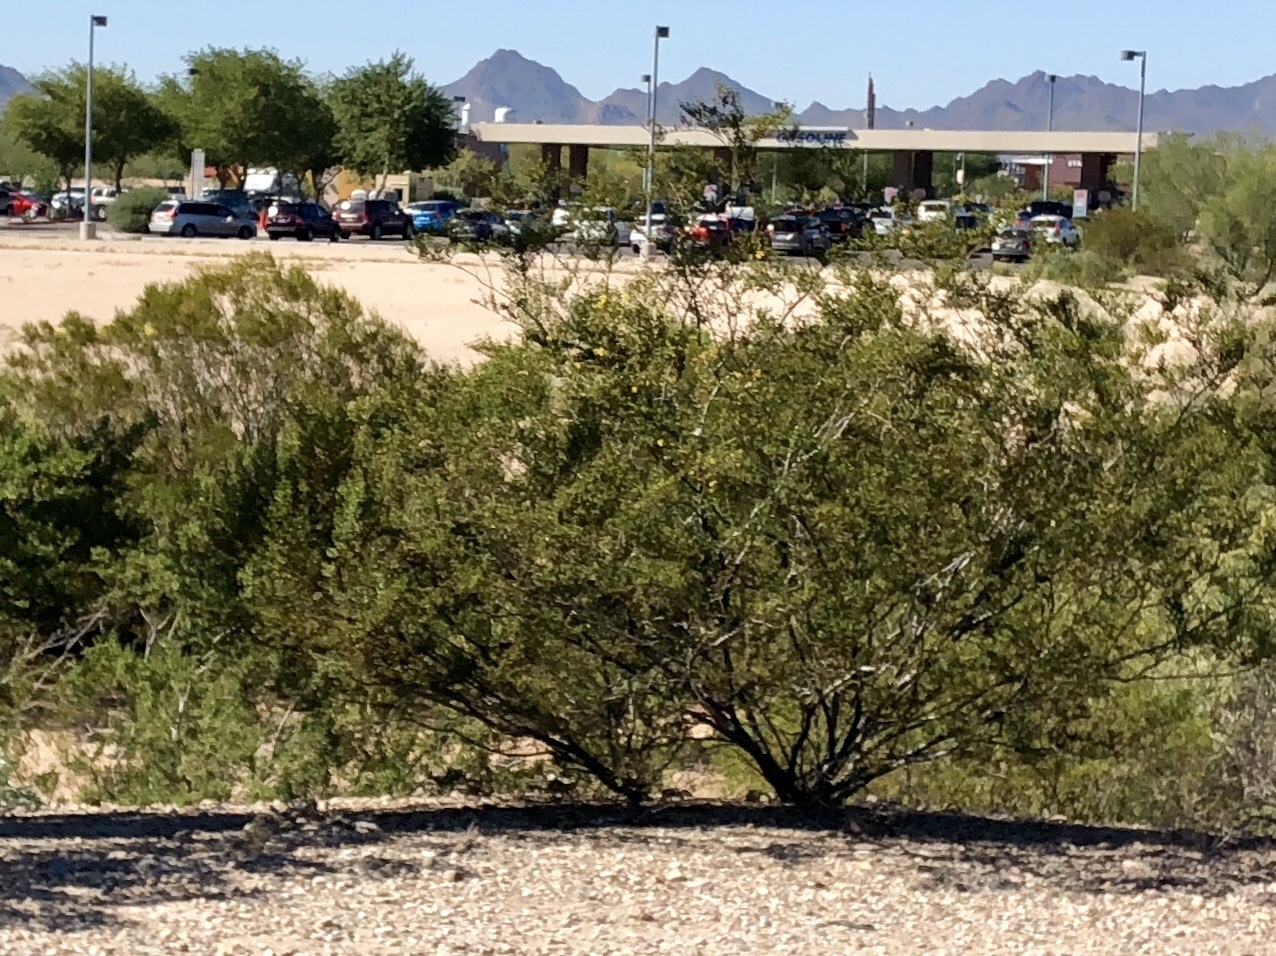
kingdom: Plantae
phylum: Tracheophyta
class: Magnoliopsida
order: Zygophyllales
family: Zygophyllaceae
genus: Larrea
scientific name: Larrea tridentata
